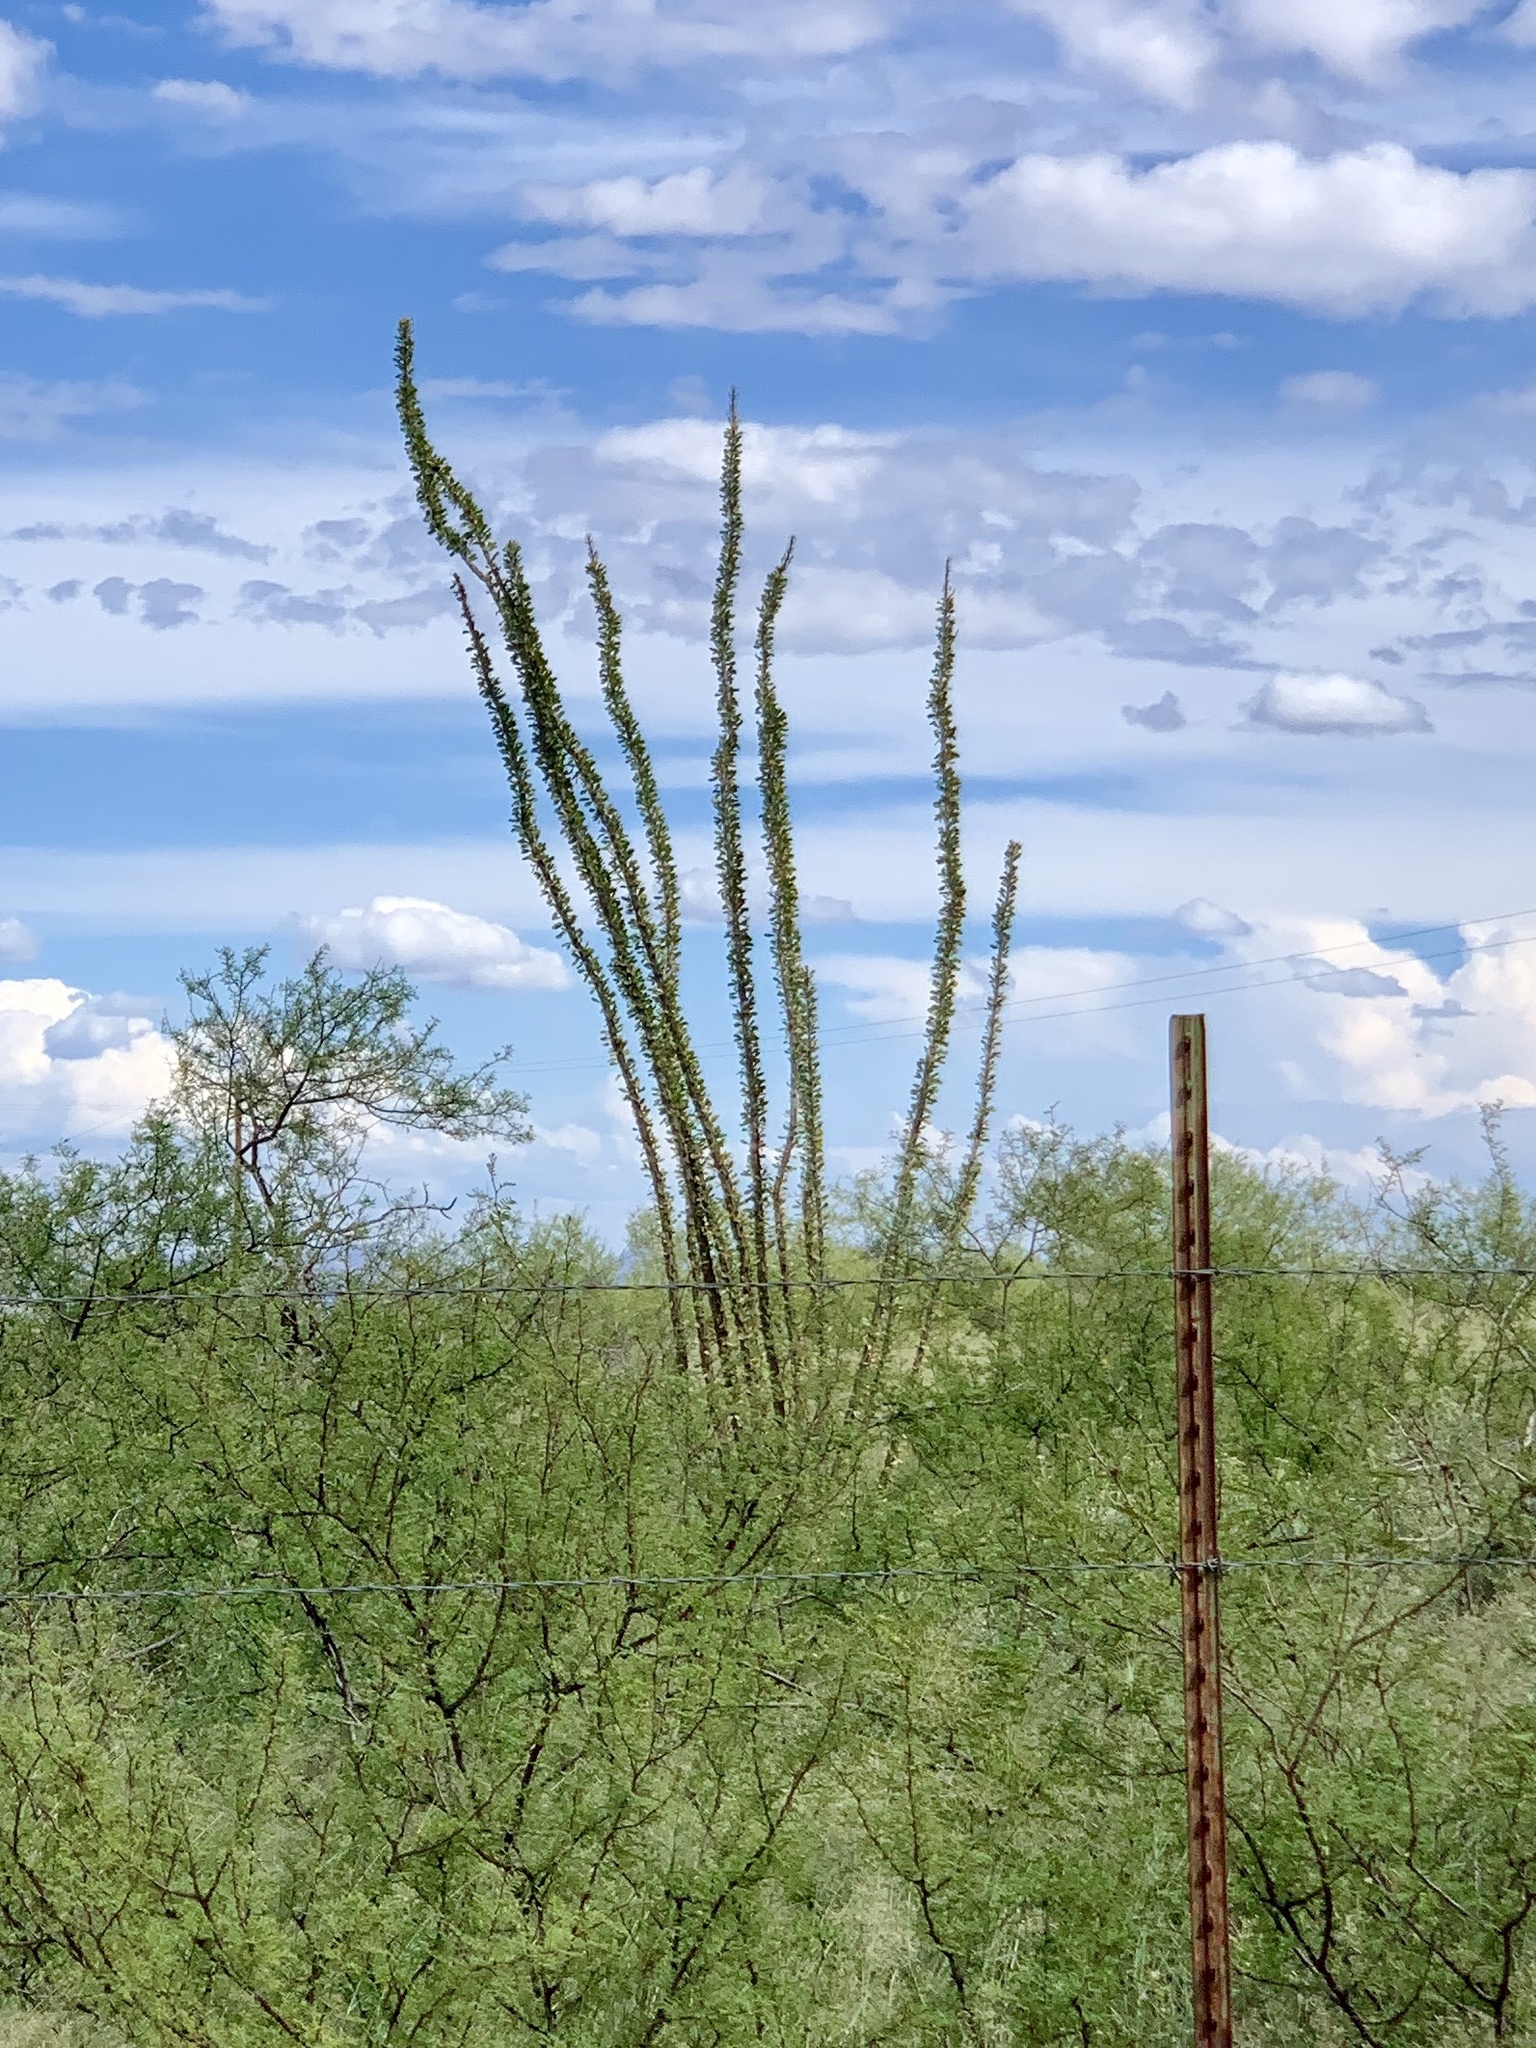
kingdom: Plantae
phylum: Tracheophyta
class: Magnoliopsida
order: Ericales
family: Fouquieriaceae
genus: Fouquieria
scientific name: Fouquieria splendens
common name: Vine-cactus
